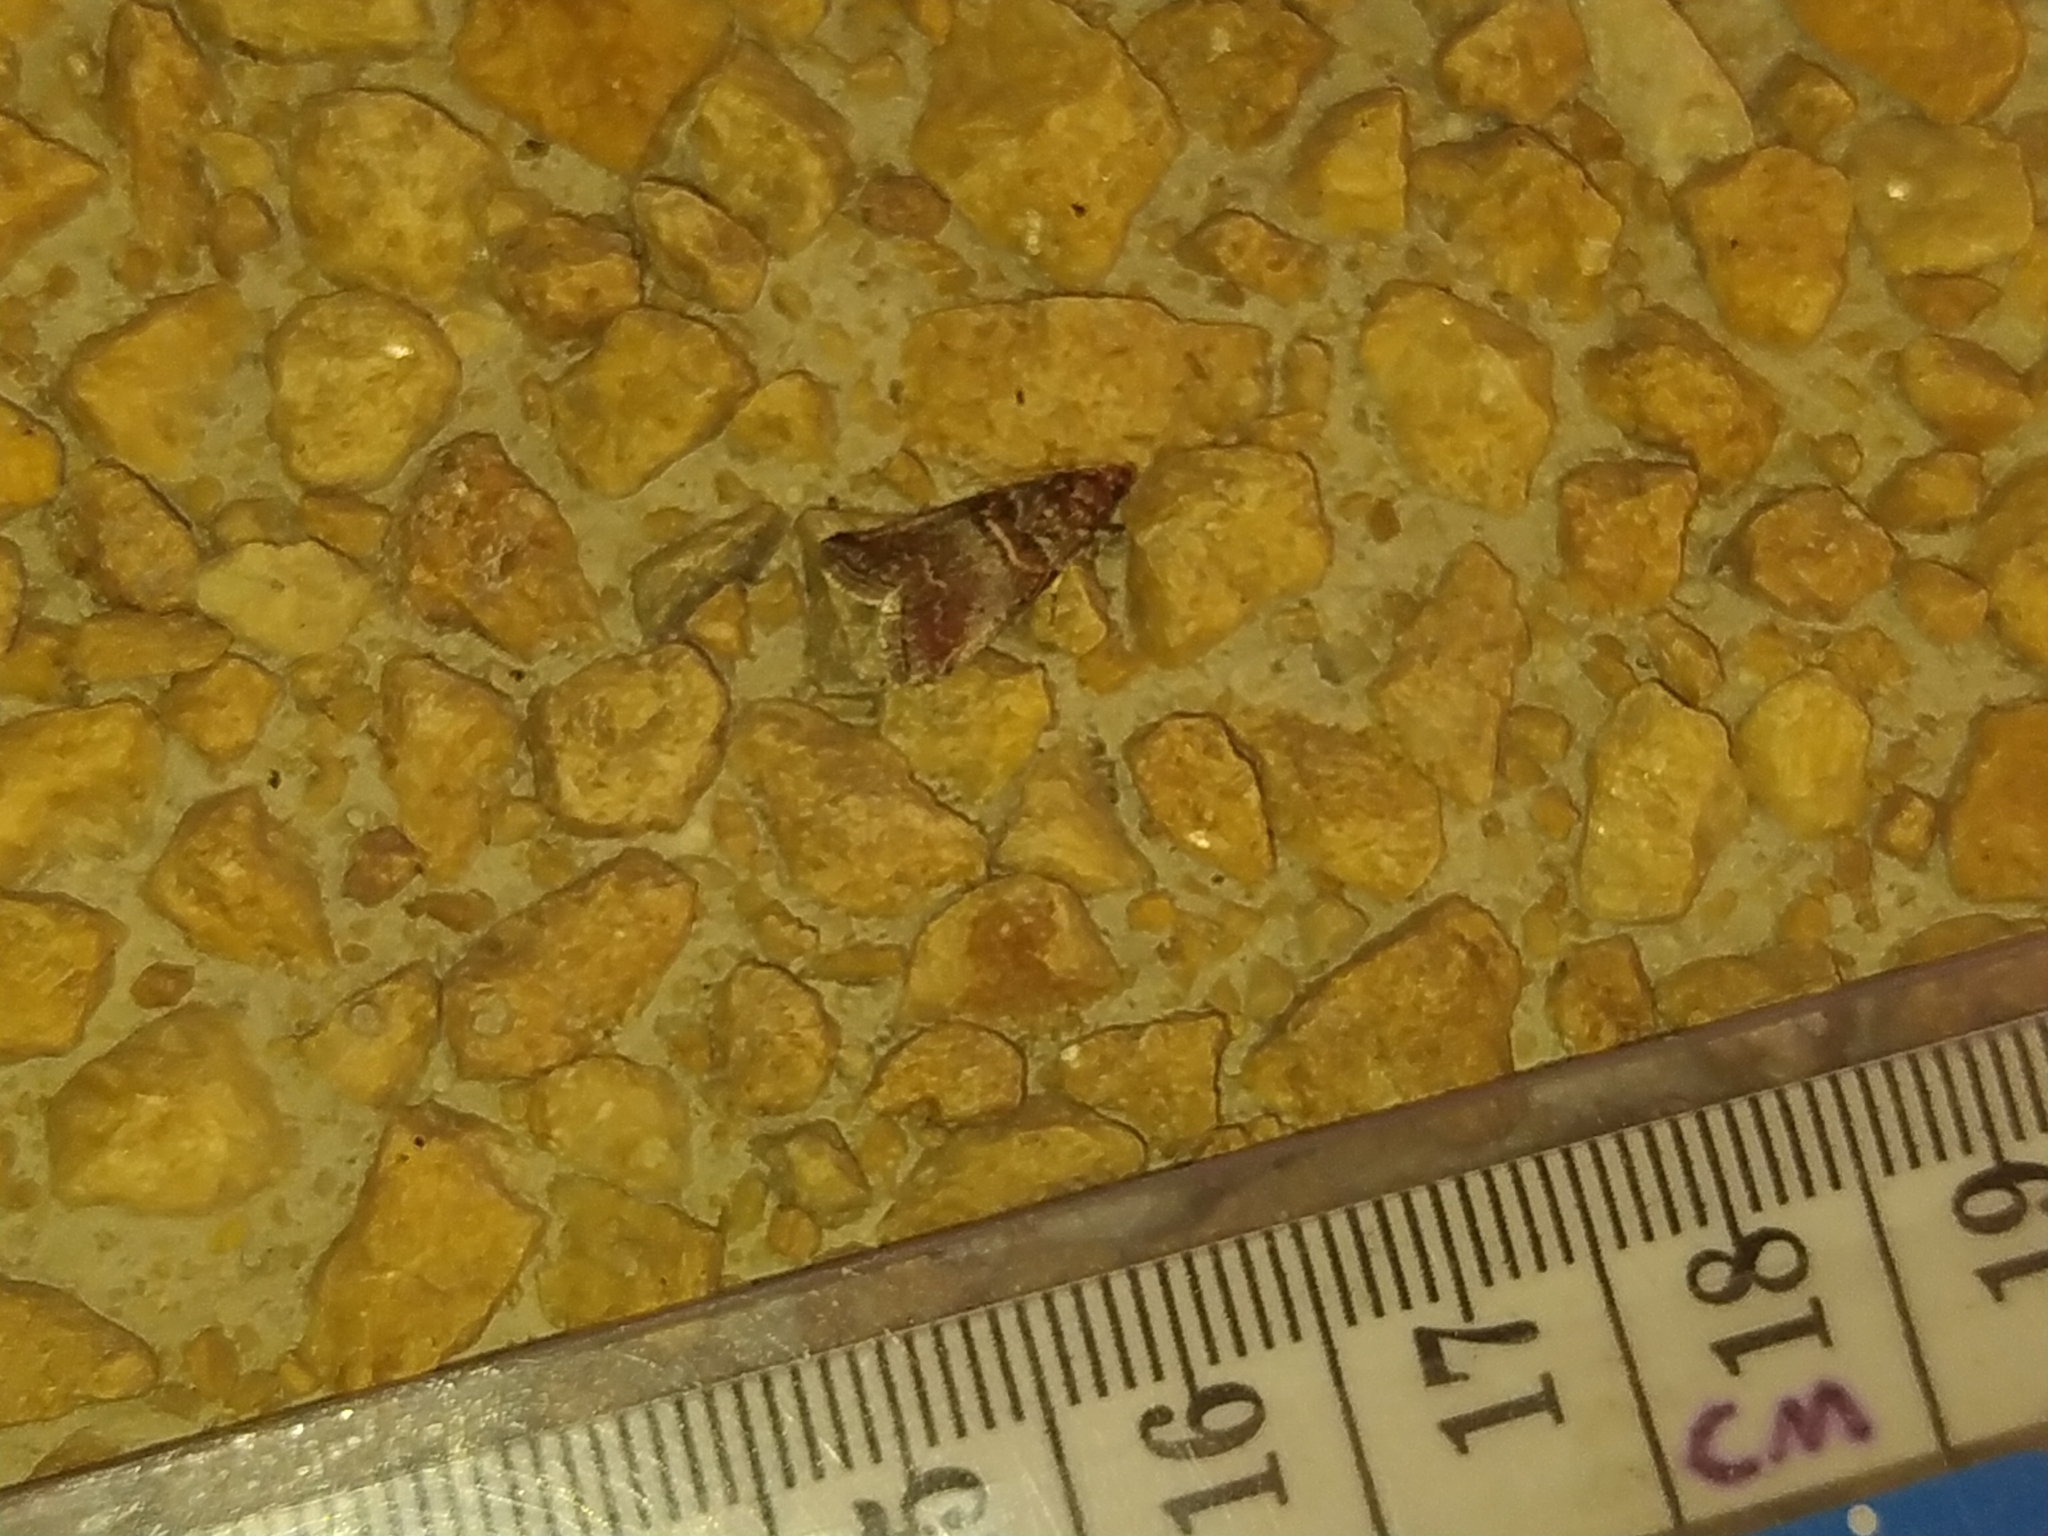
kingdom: Animalia
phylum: Arthropoda
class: Insecta
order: Lepidoptera
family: Pyralidae
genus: Acrobasis
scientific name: Acrobasis advenella
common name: Grey knot-horn
